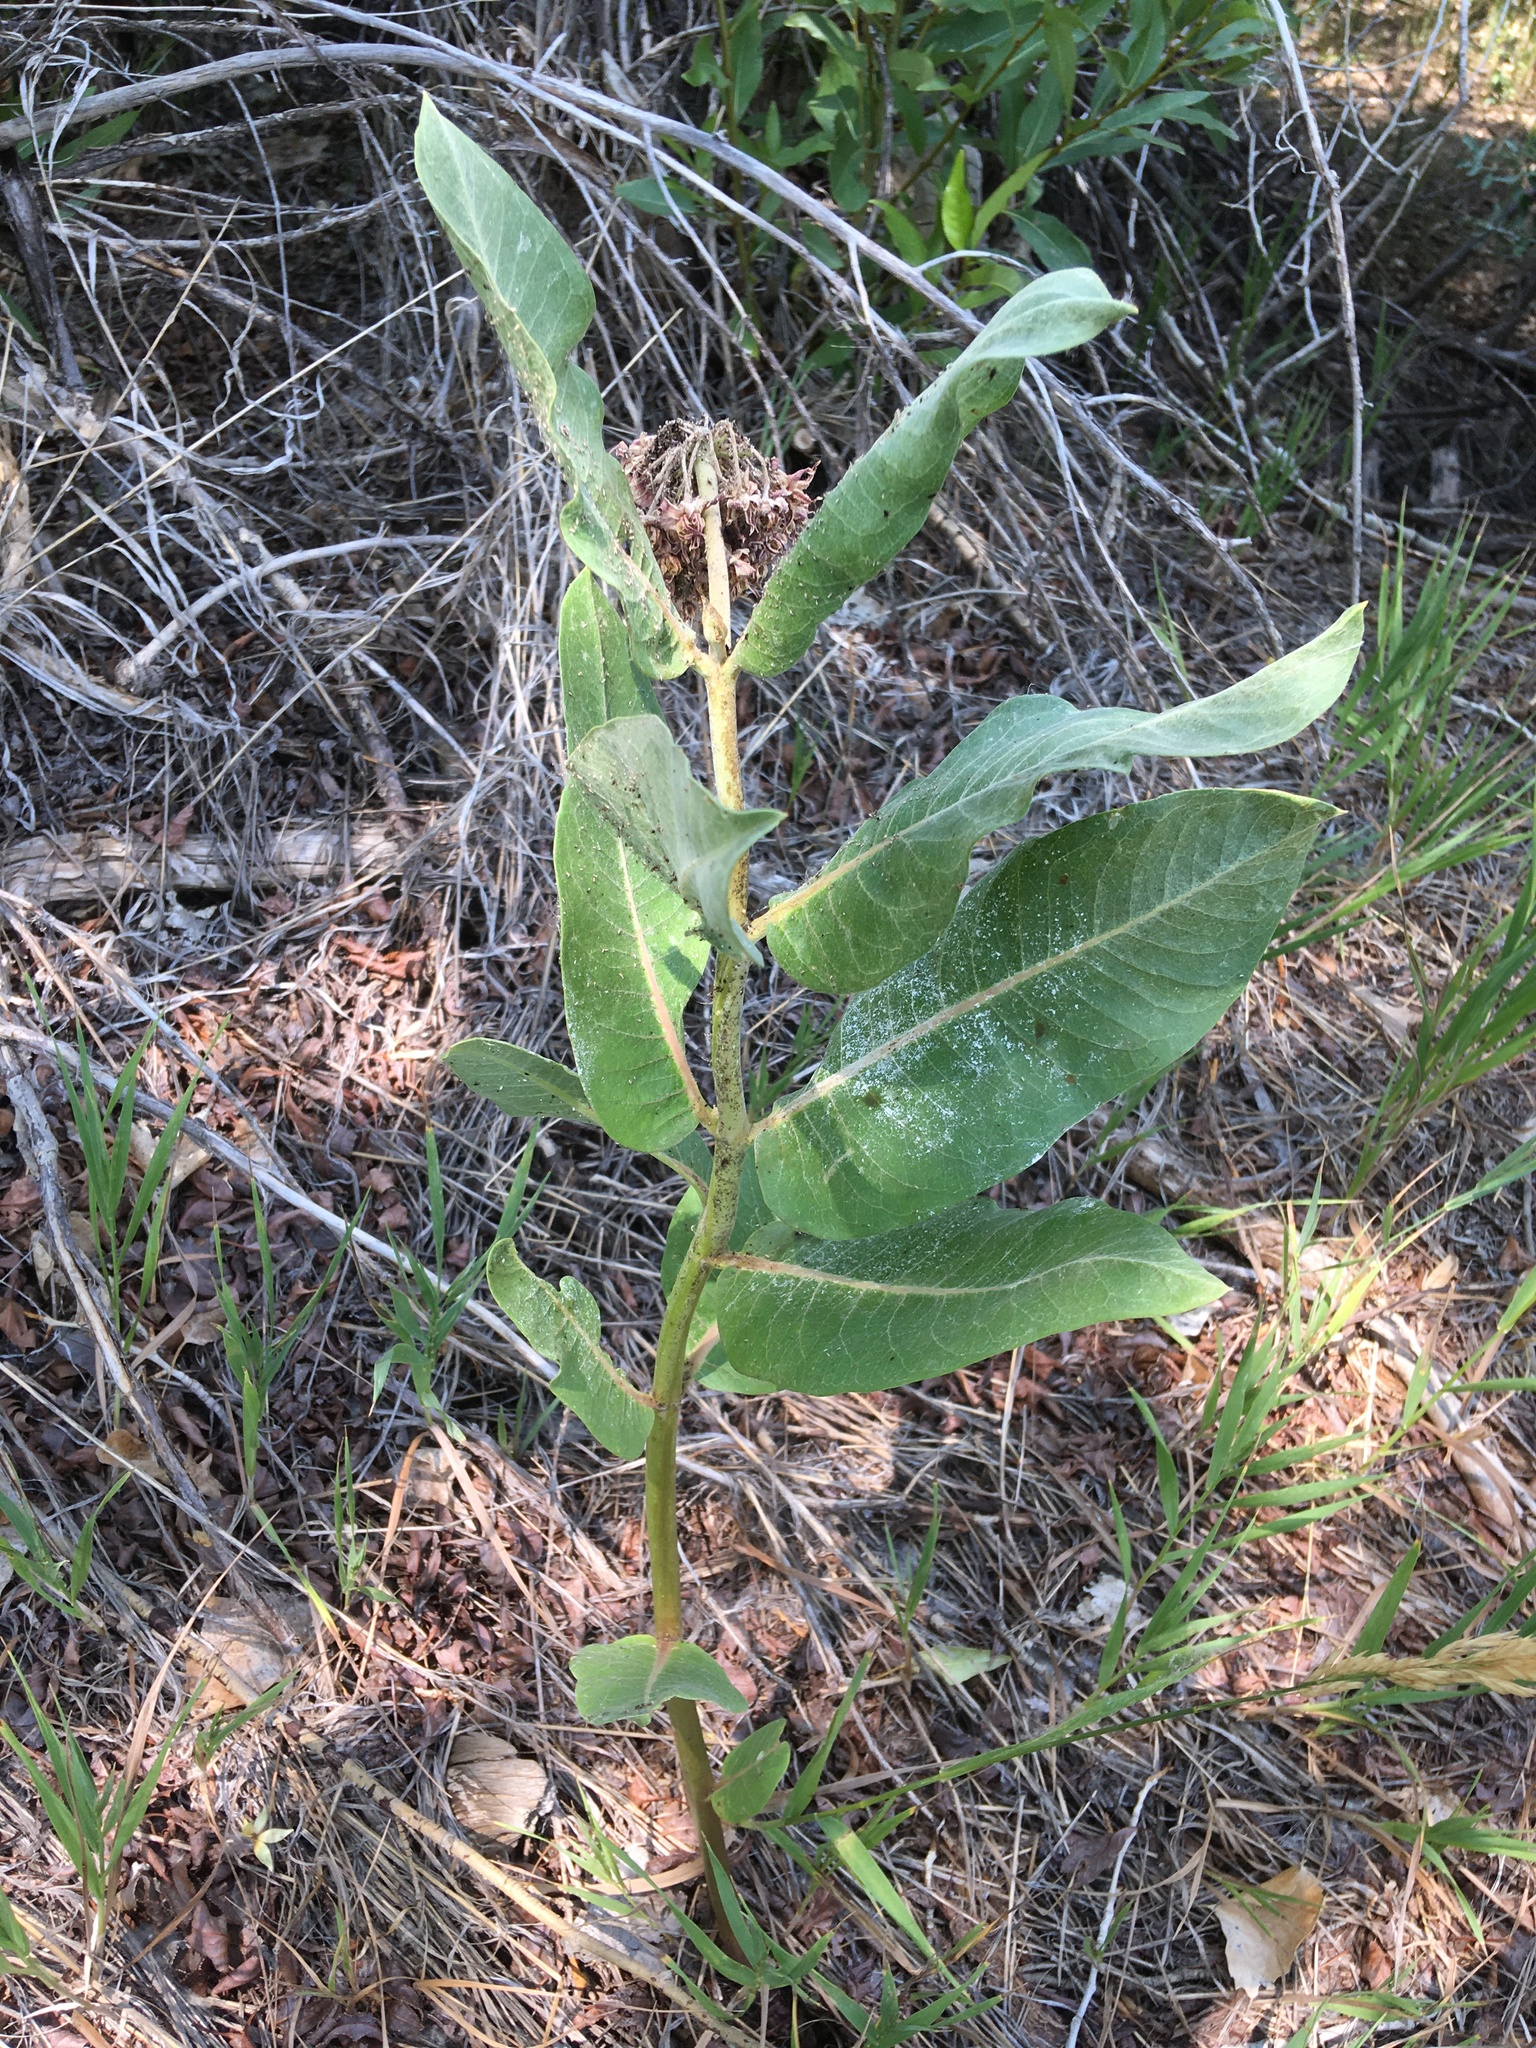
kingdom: Plantae
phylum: Tracheophyta
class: Magnoliopsida
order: Gentianales
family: Apocynaceae
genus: Asclepias
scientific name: Asclepias speciosa
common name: Showy milkweed
